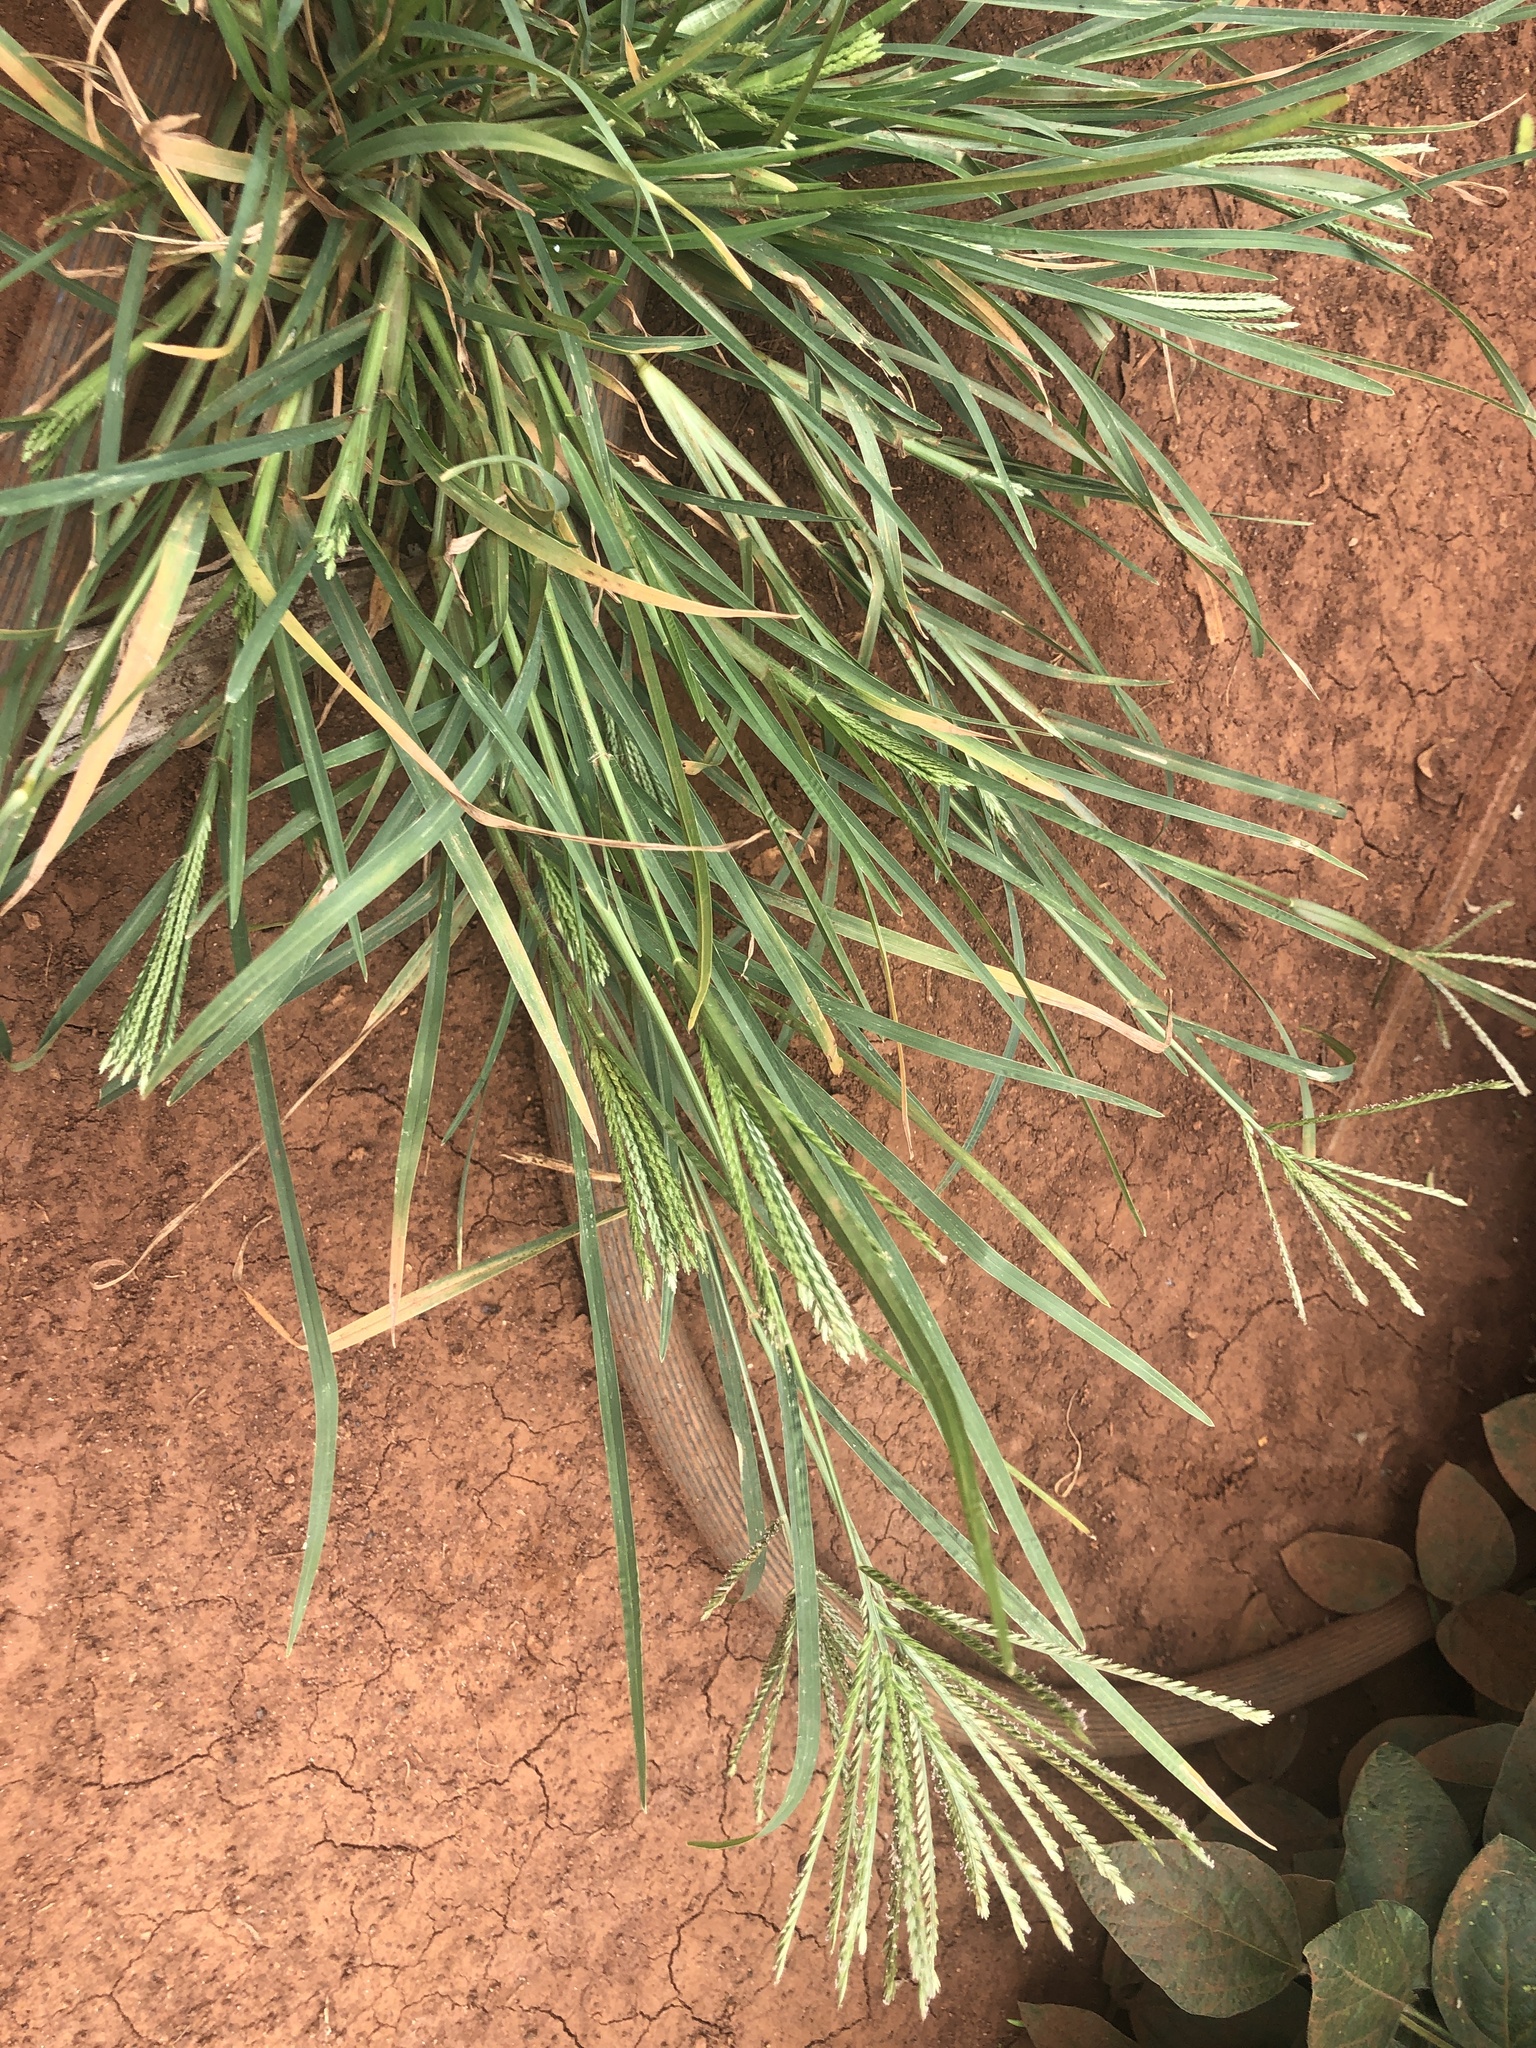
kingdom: Plantae
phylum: Tracheophyta
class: Liliopsida
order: Poales
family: Poaceae
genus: Eleusine
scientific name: Eleusine indica
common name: Yard-grass
